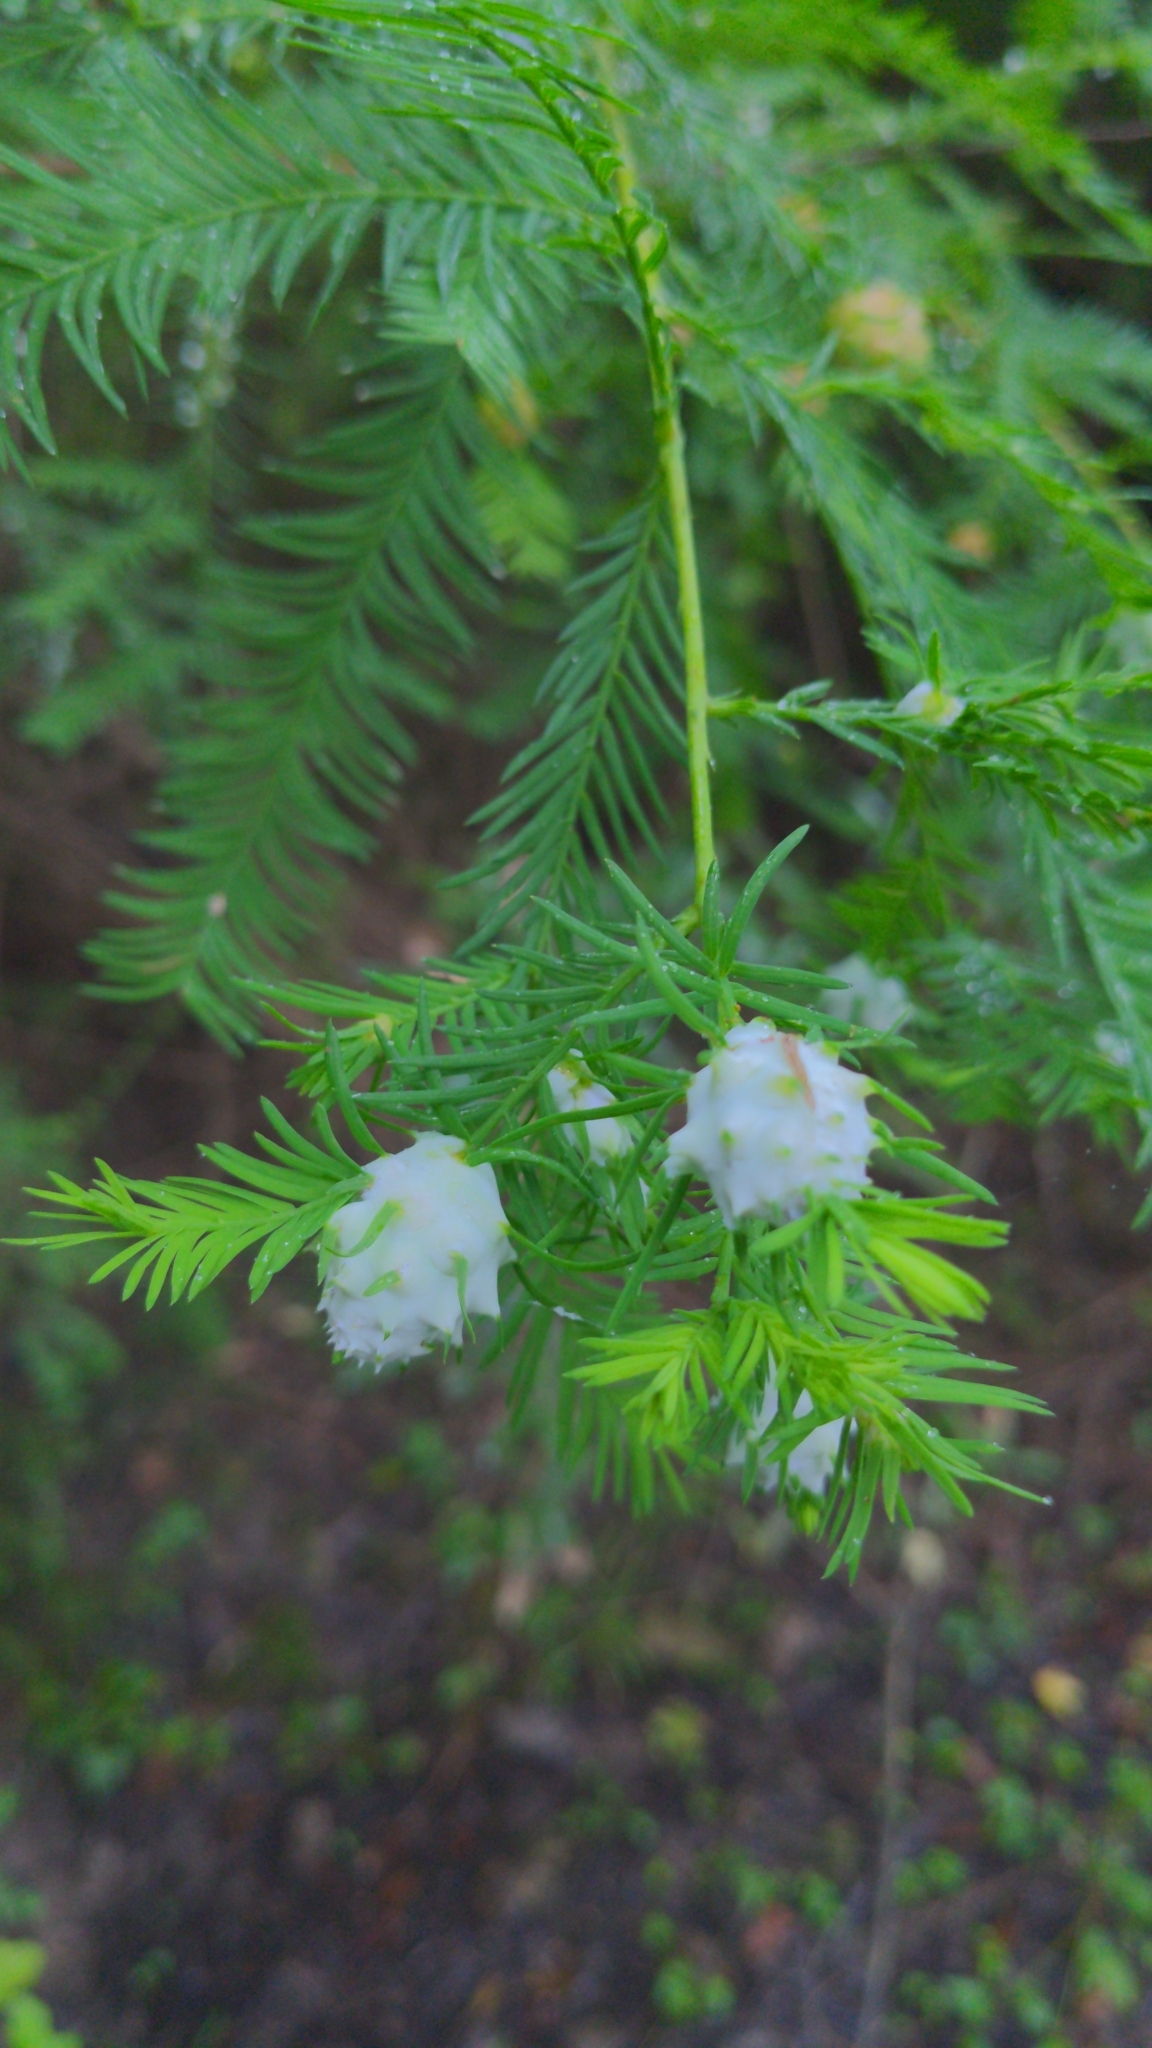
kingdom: Animalia
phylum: Arthropoda
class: Insecta
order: Diptera
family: Cecidomyiidae
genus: Taxodiomyia
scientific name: Taxodiomyia cupressiananassa
